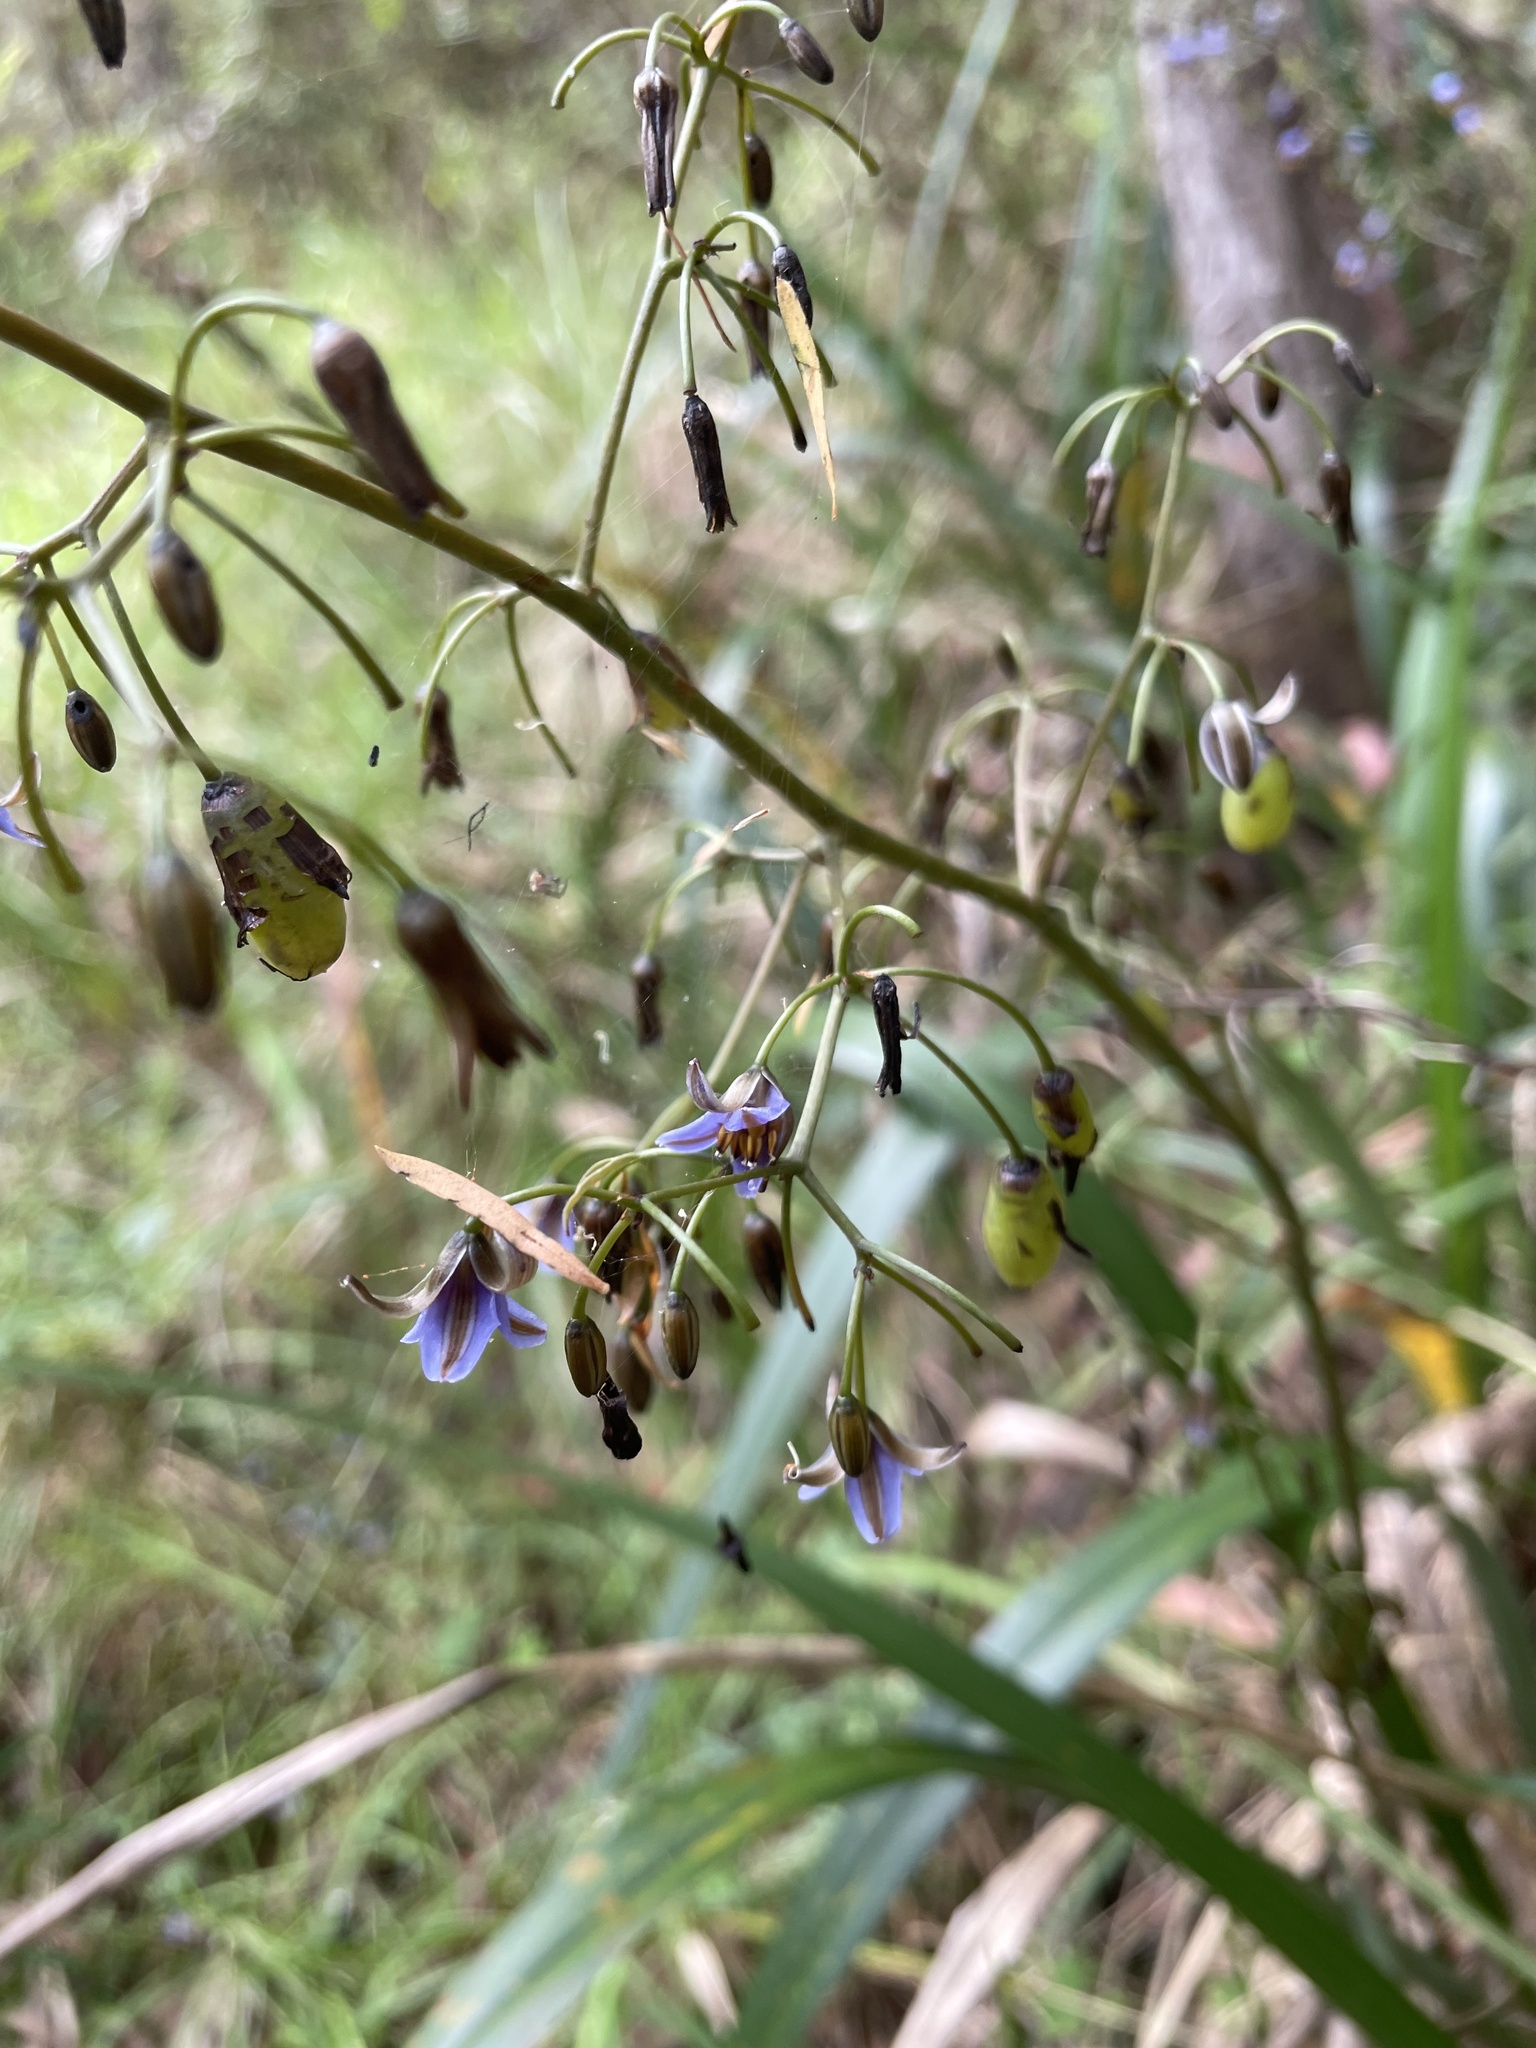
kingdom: Plantae
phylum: Tracheophyta
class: Liliopsida
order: Asparagales
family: Asphodelaceae
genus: Dianella
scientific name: Dianella tasmanica
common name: Tasman flax-lily
